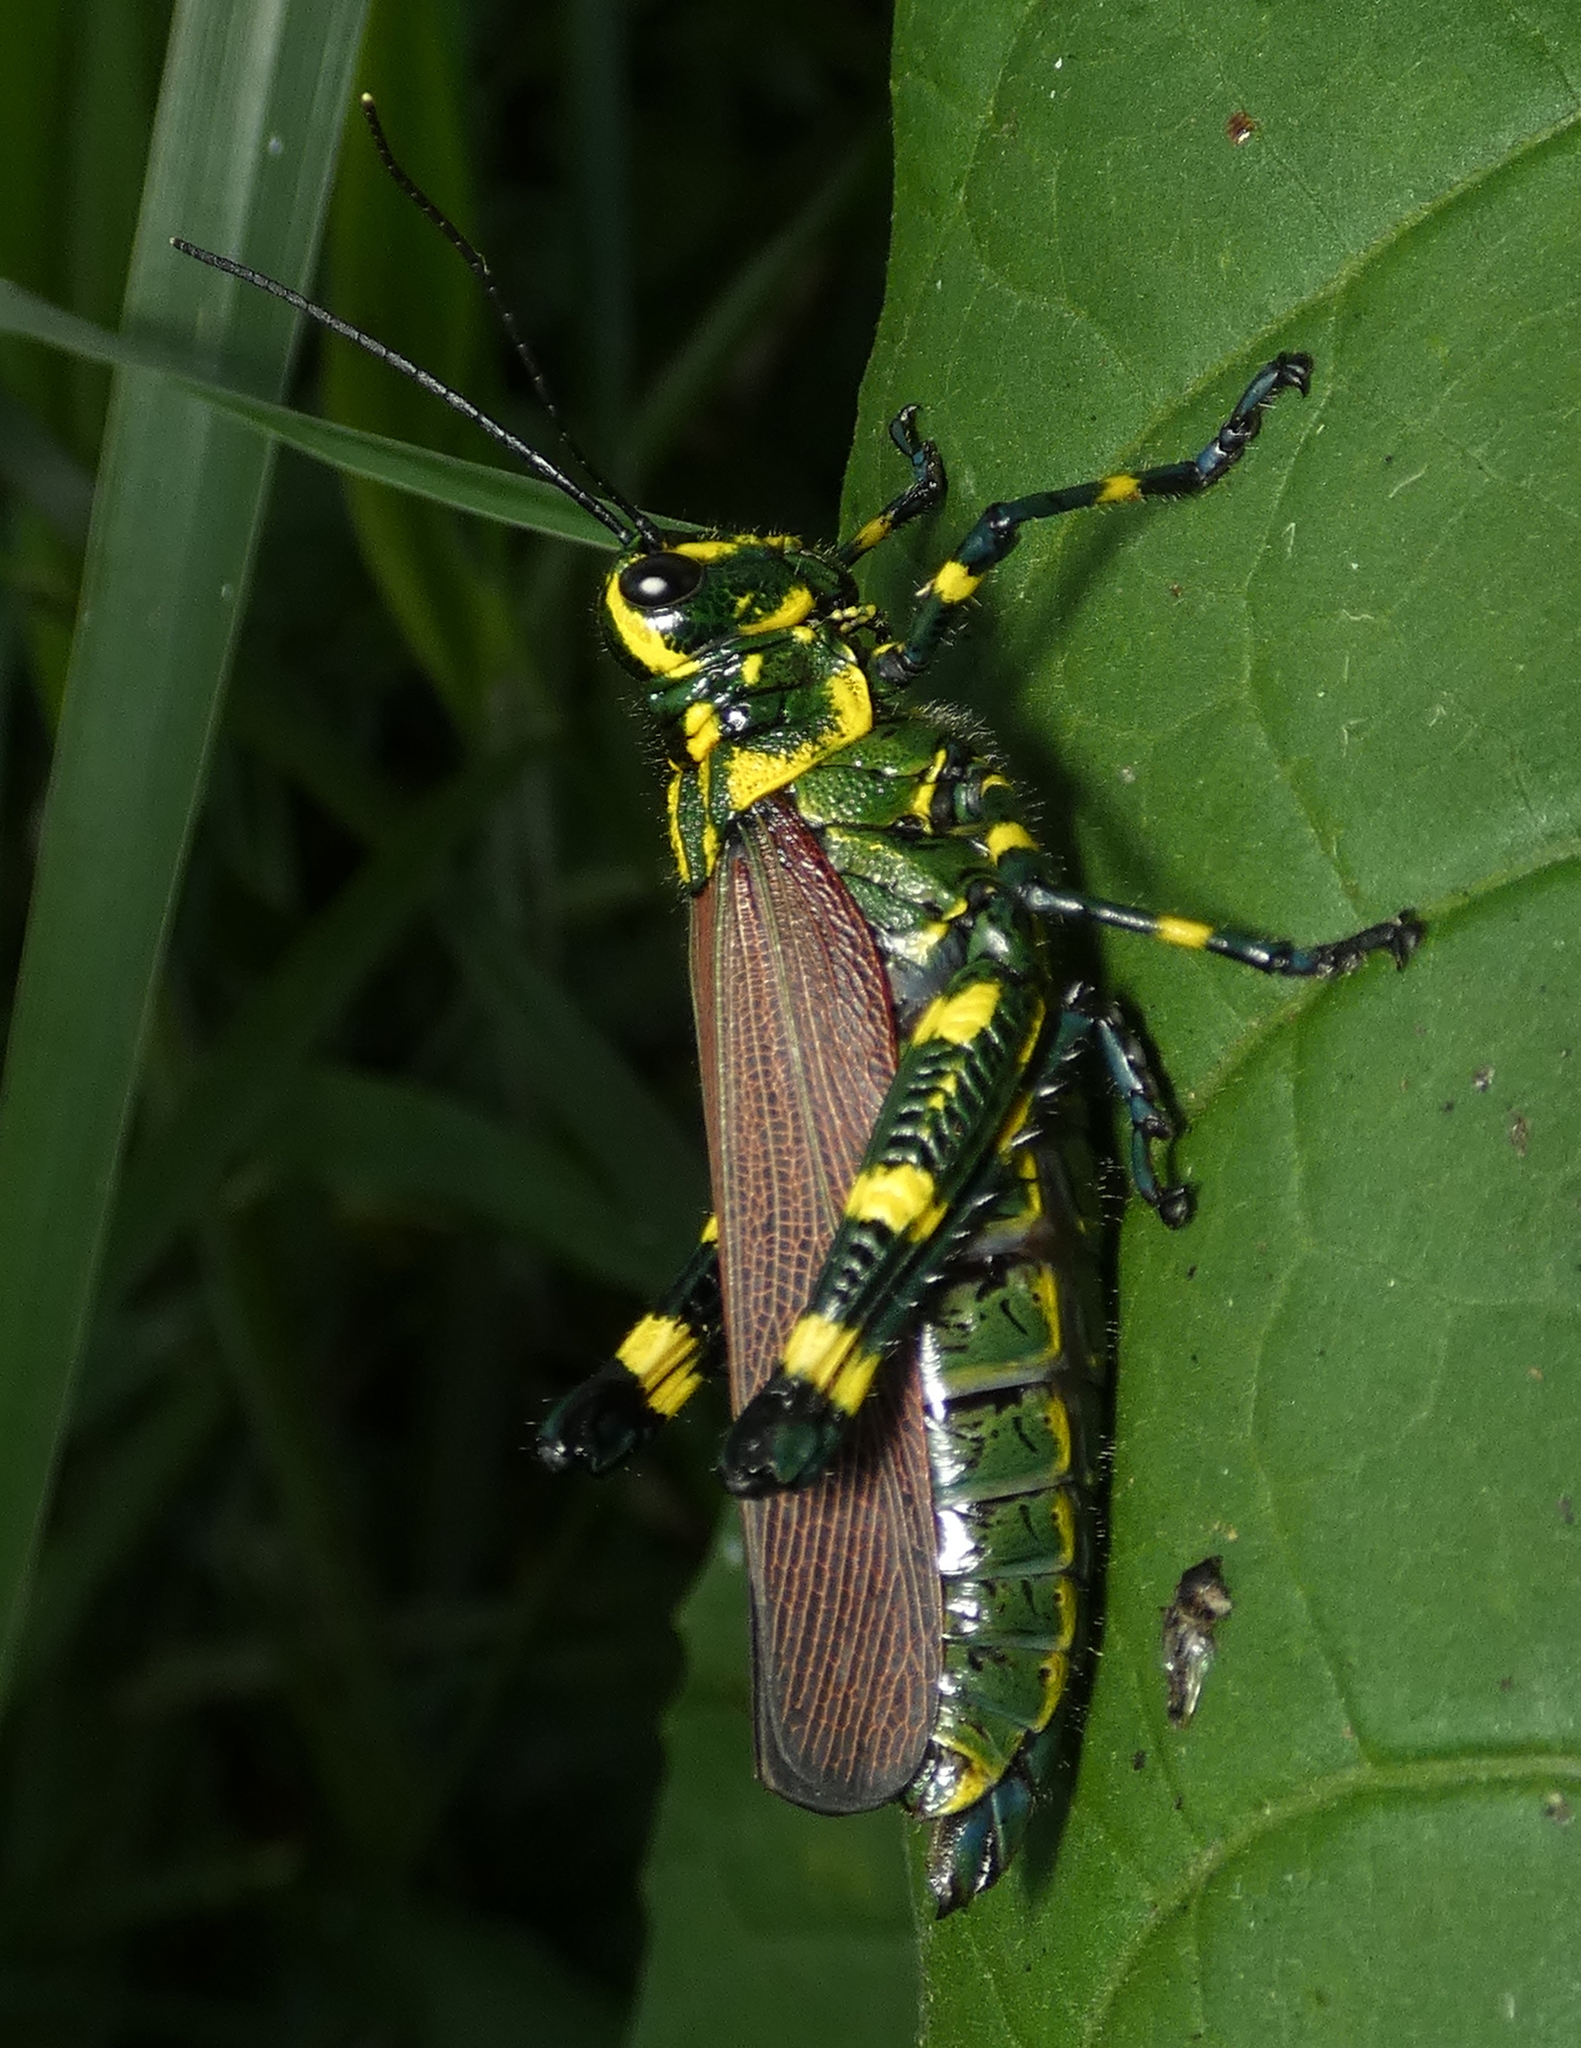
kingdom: Animalia
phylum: Arthropoda
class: Insecta
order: Orthoptera
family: Romaleidae
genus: Chromacris
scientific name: Chromacris speciosa
